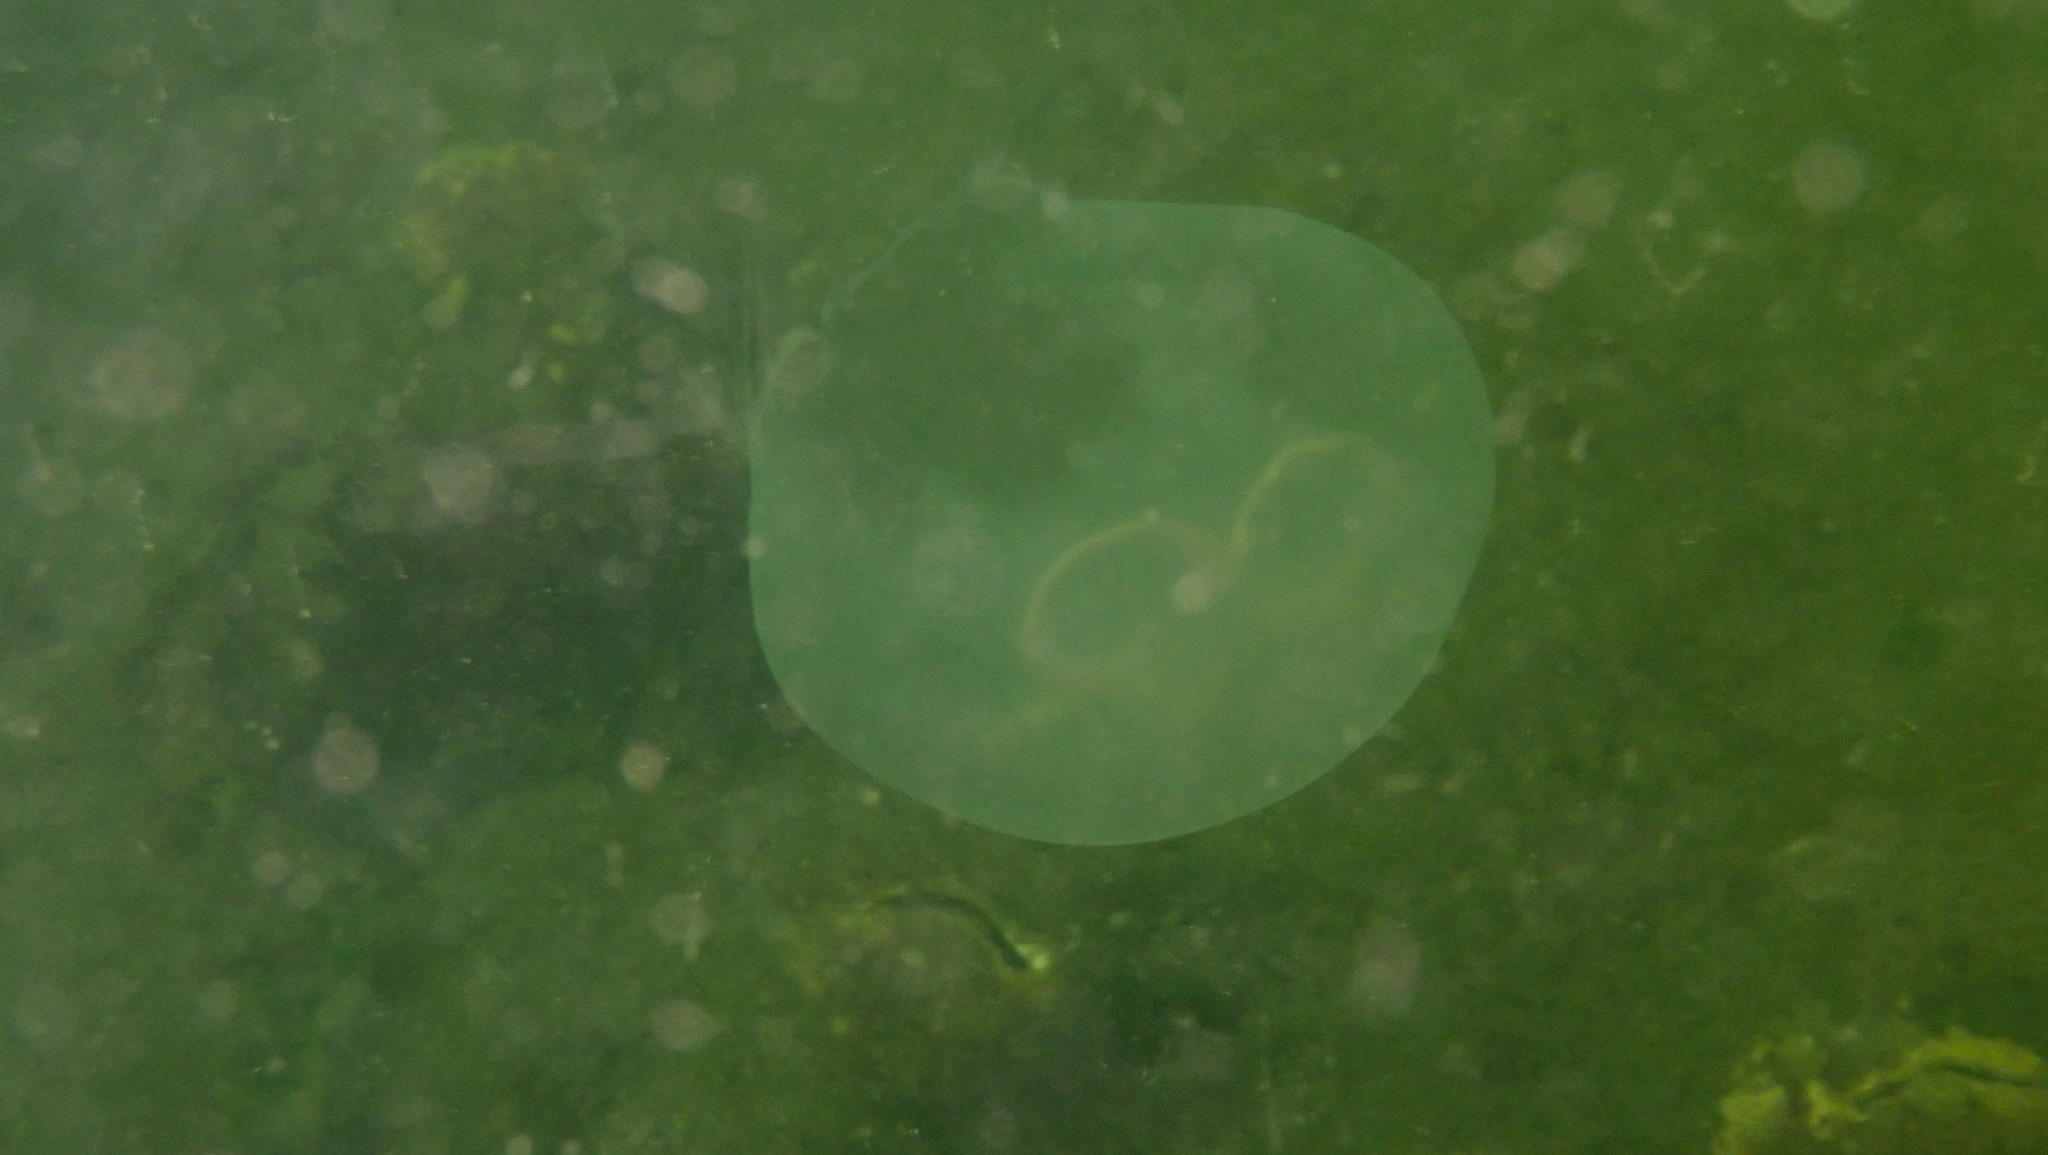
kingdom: Animalia
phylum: Cnidaria
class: Scyphozoa
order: Semaeostomeae
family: Ulmaridae
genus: Aurelia
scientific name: Aurelia aurita
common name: Moon jellyfish
